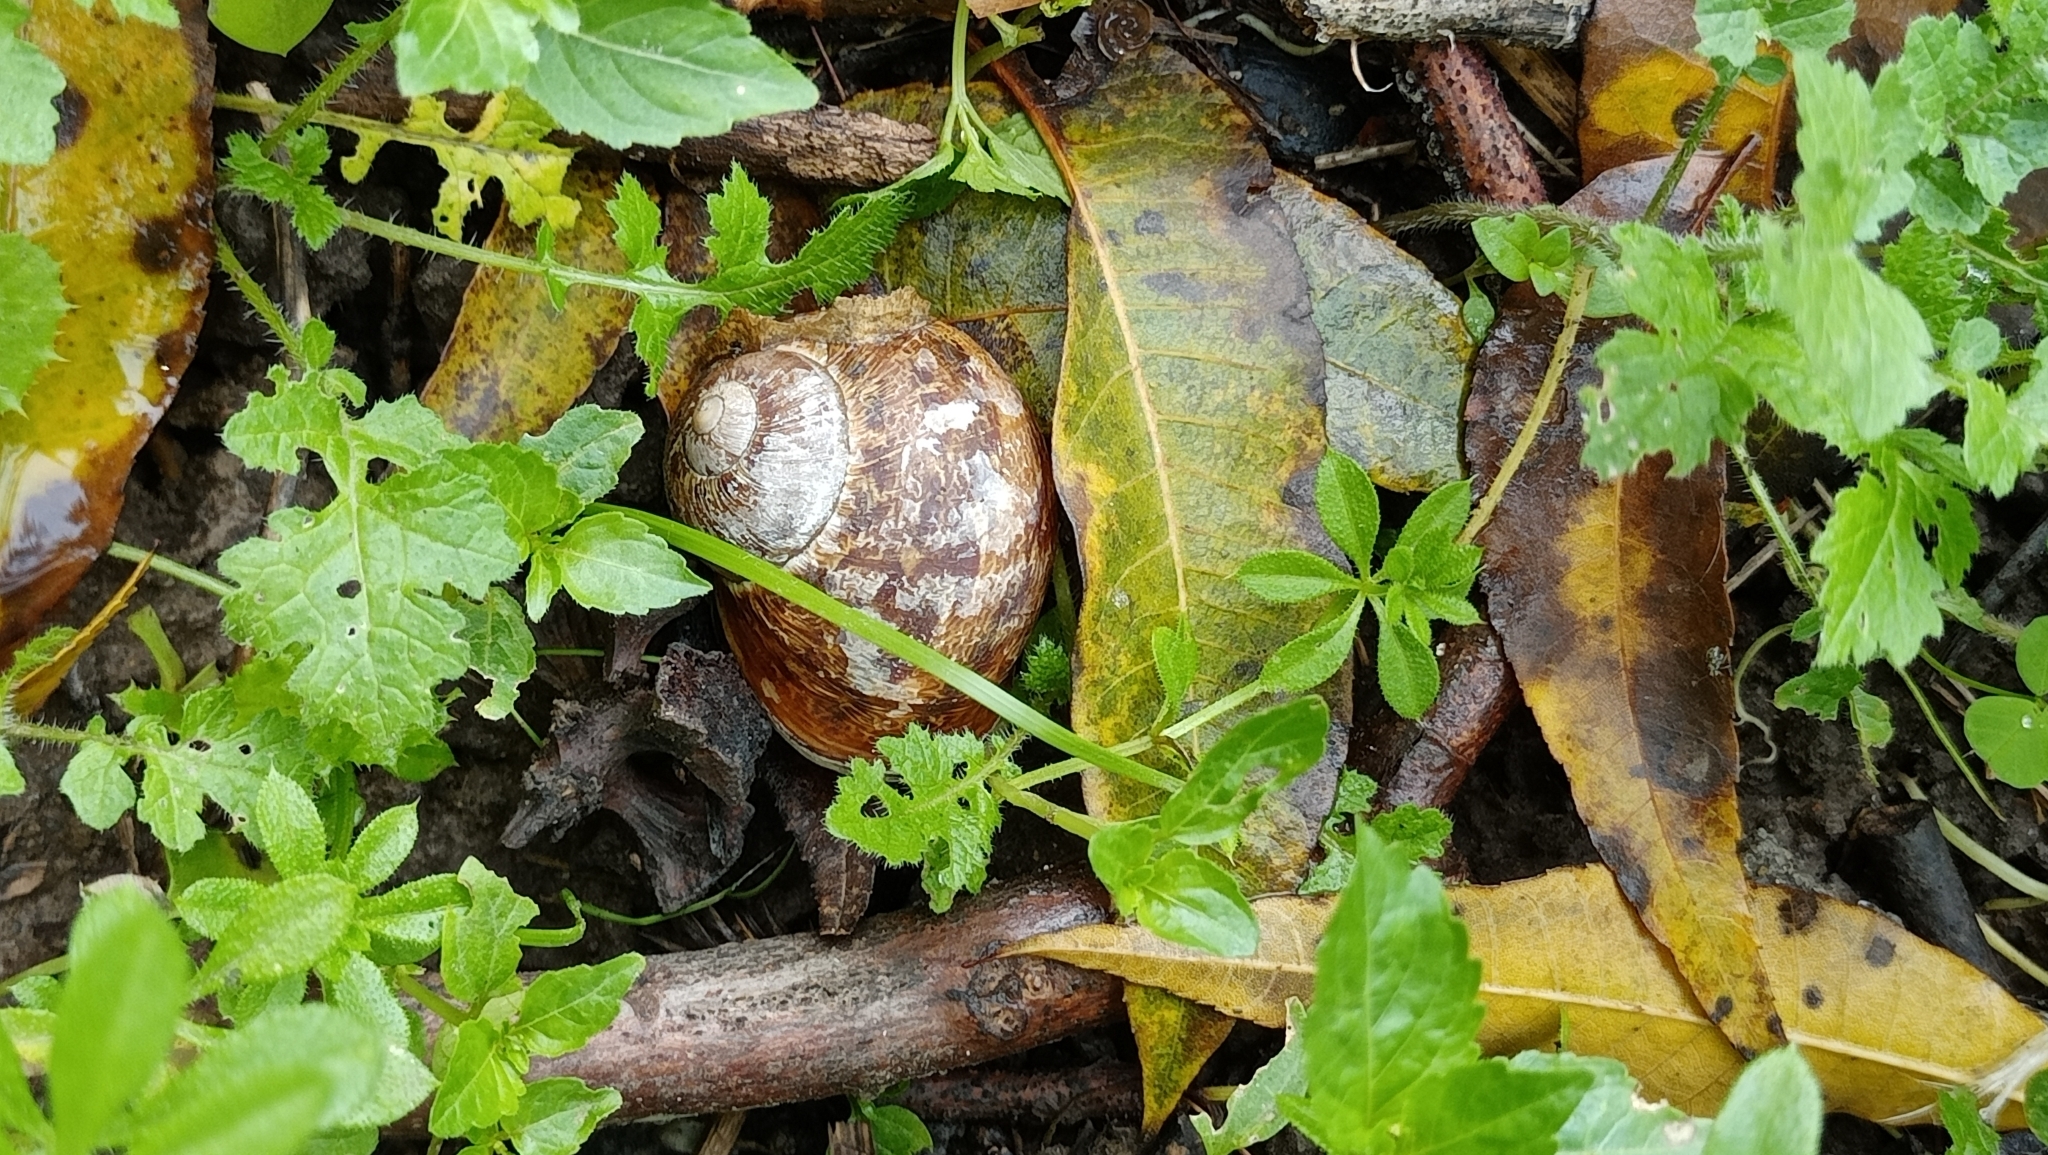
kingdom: Animalia
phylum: Mollusca
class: Gastropoda
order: Stylommatophora
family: Helicidae
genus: Cornu
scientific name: Cornu aspersum
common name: Brown garden snail
